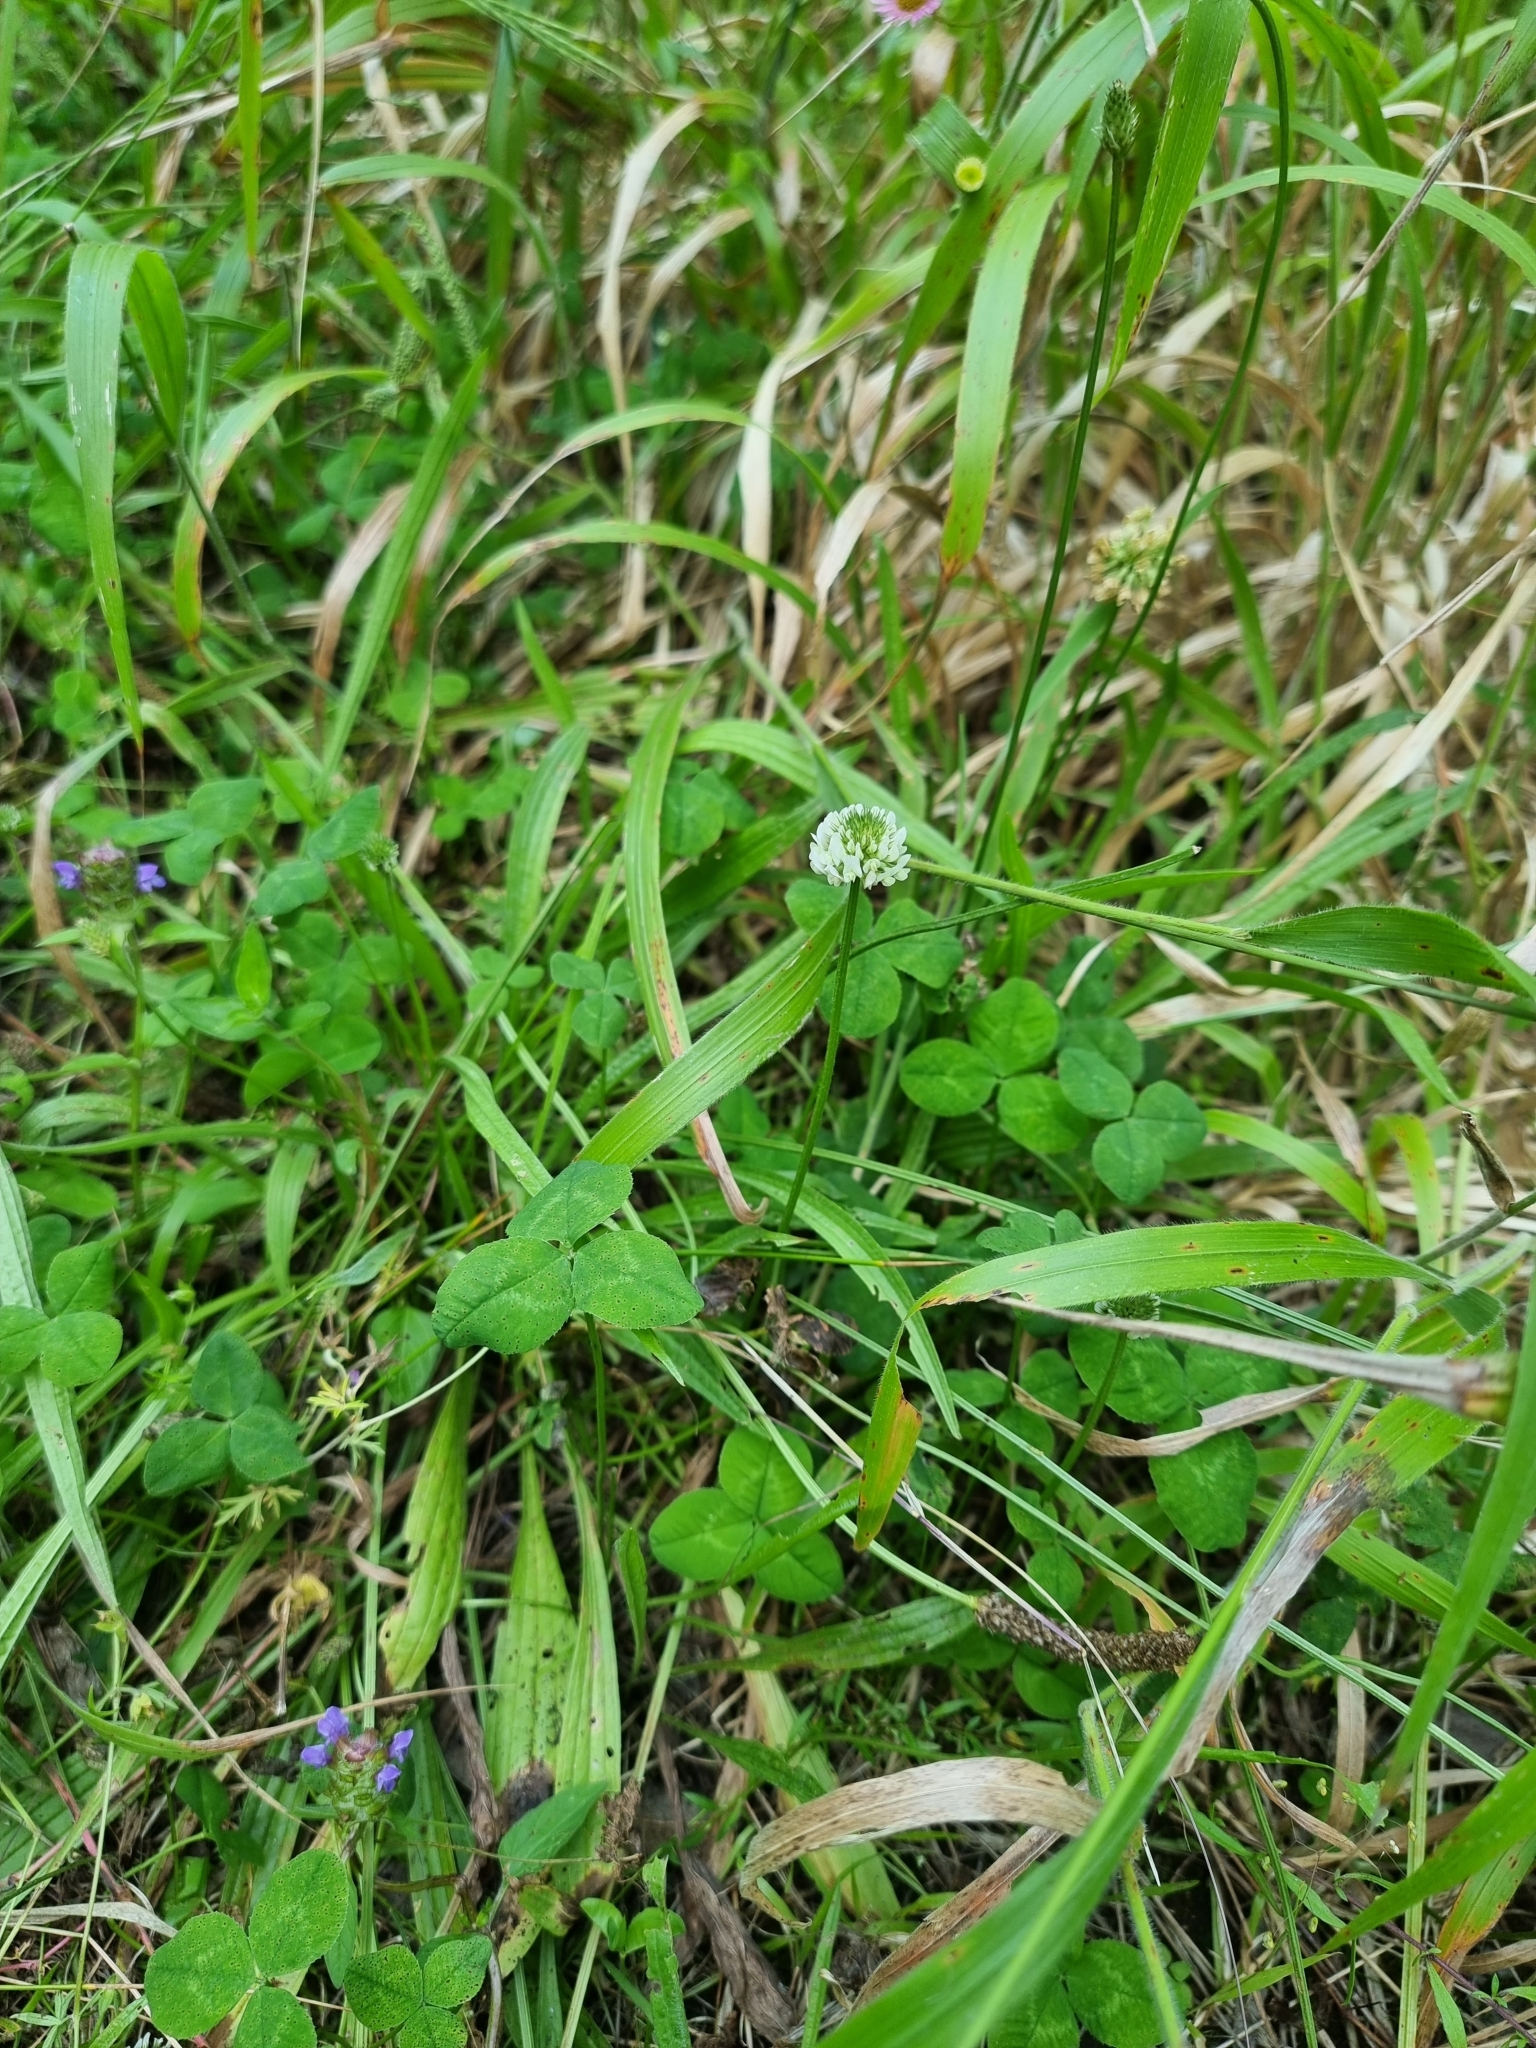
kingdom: Plantae
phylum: Tracheophyta
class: Magnoliopsida
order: Fabales
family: Fabaceae
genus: Trifolium
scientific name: Trifolium repens
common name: White clover
